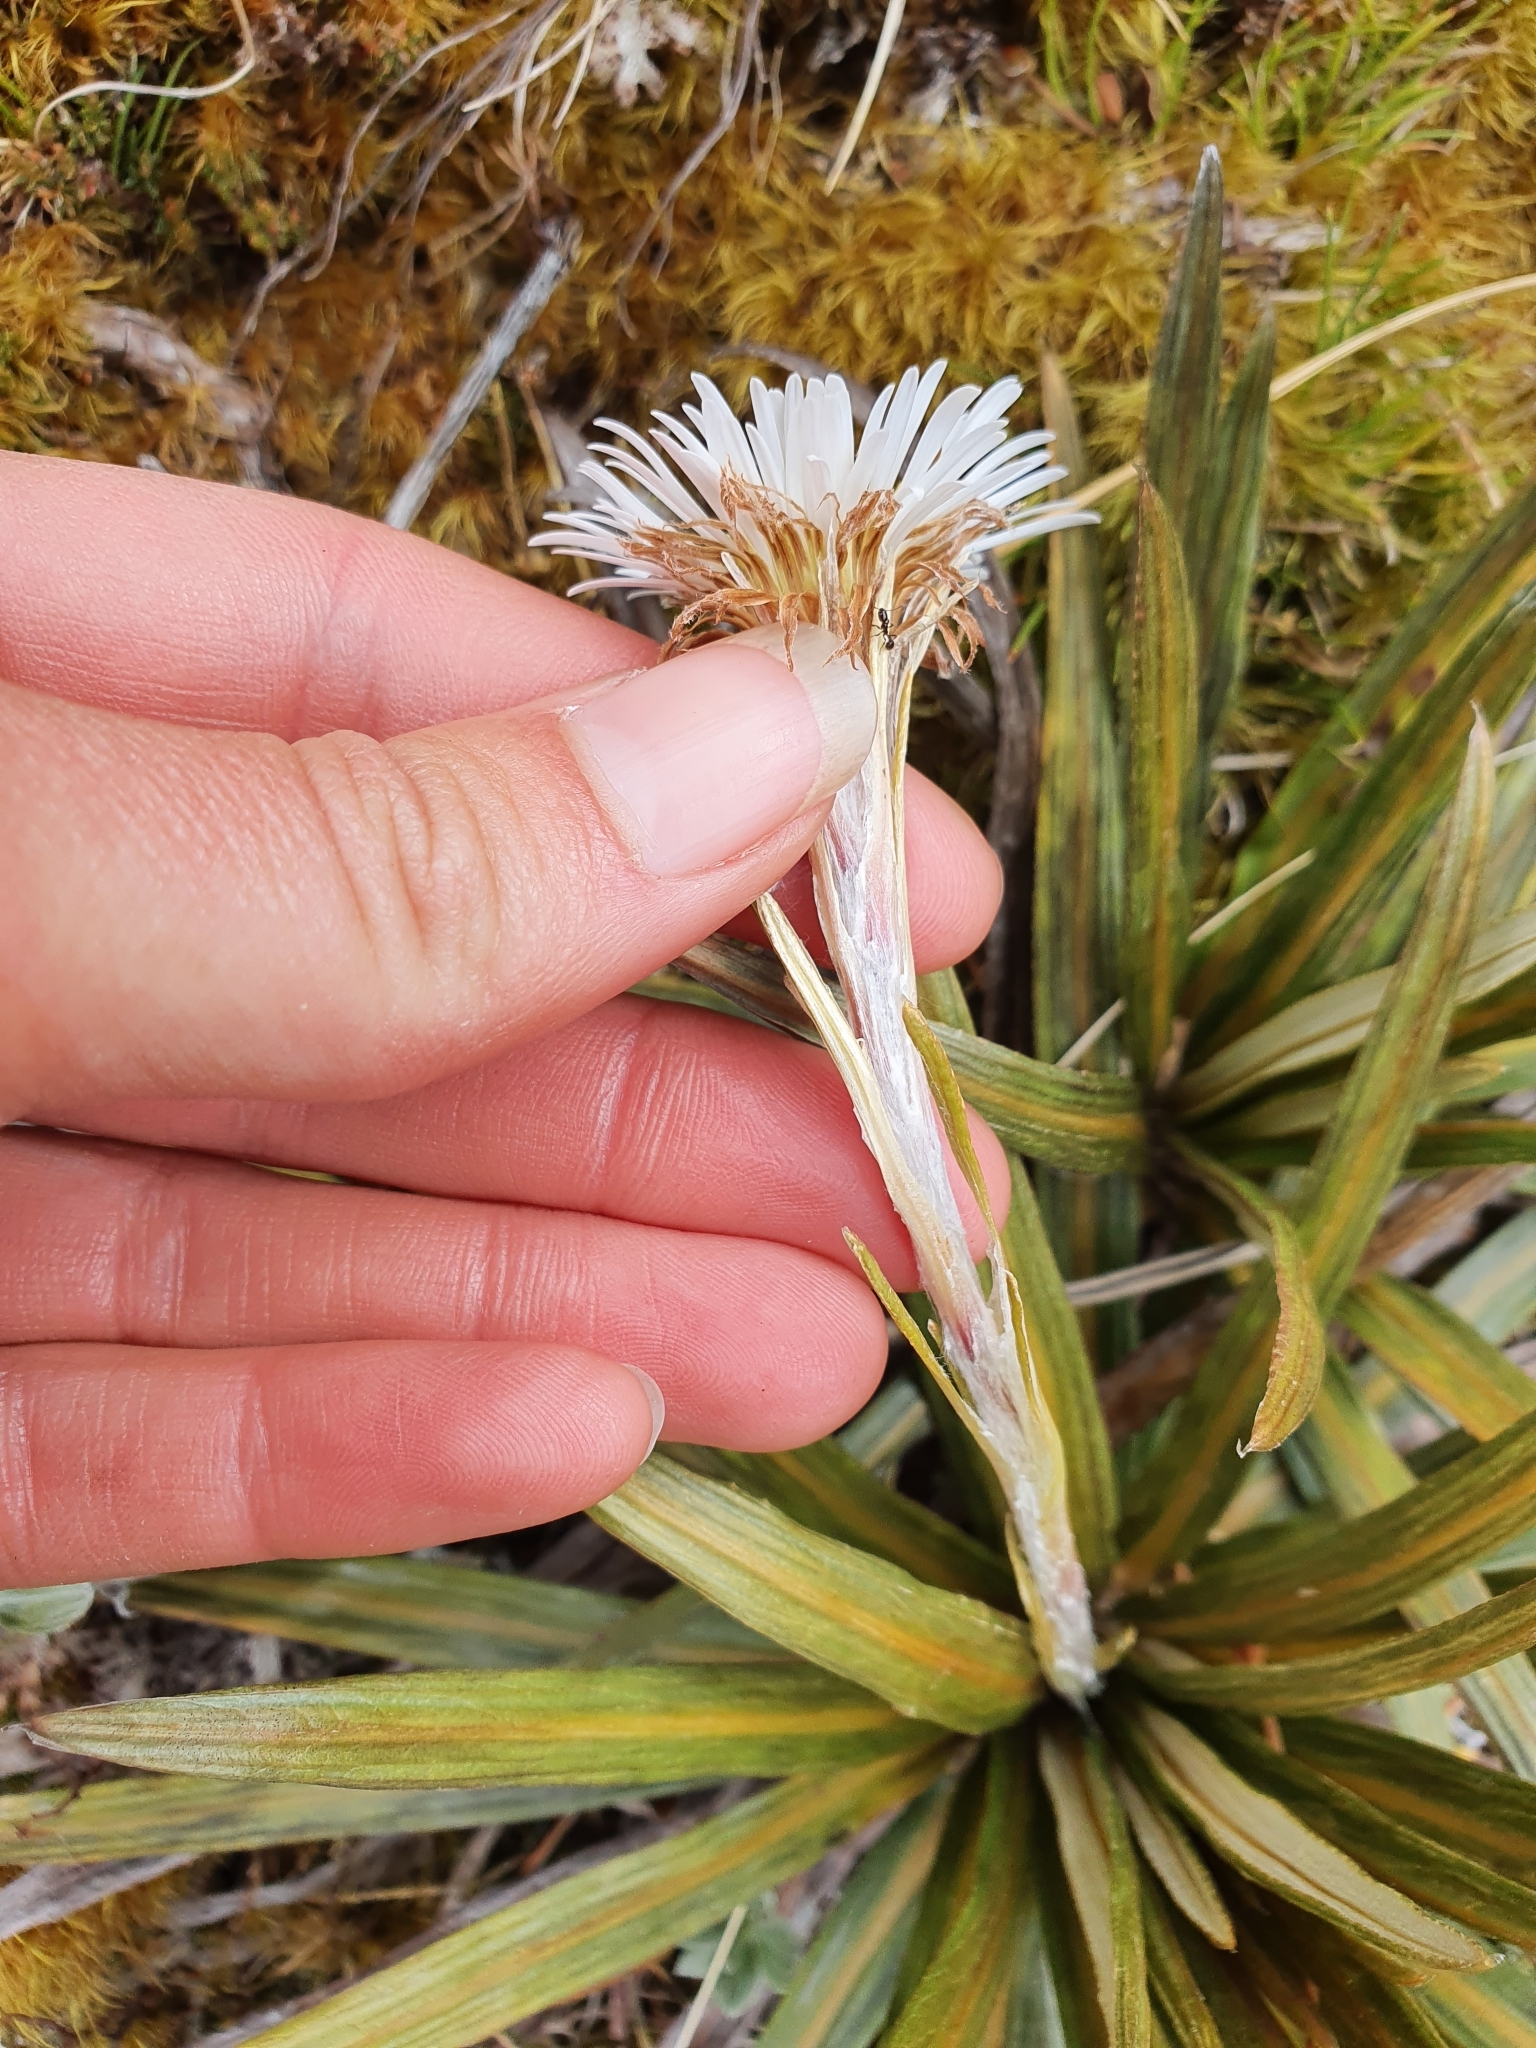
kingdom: Plantae
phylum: Tracheophyta
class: Magnoliopsida
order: Asterales
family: Asteraceae
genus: Celmisia
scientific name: Celmisia armstrongii
